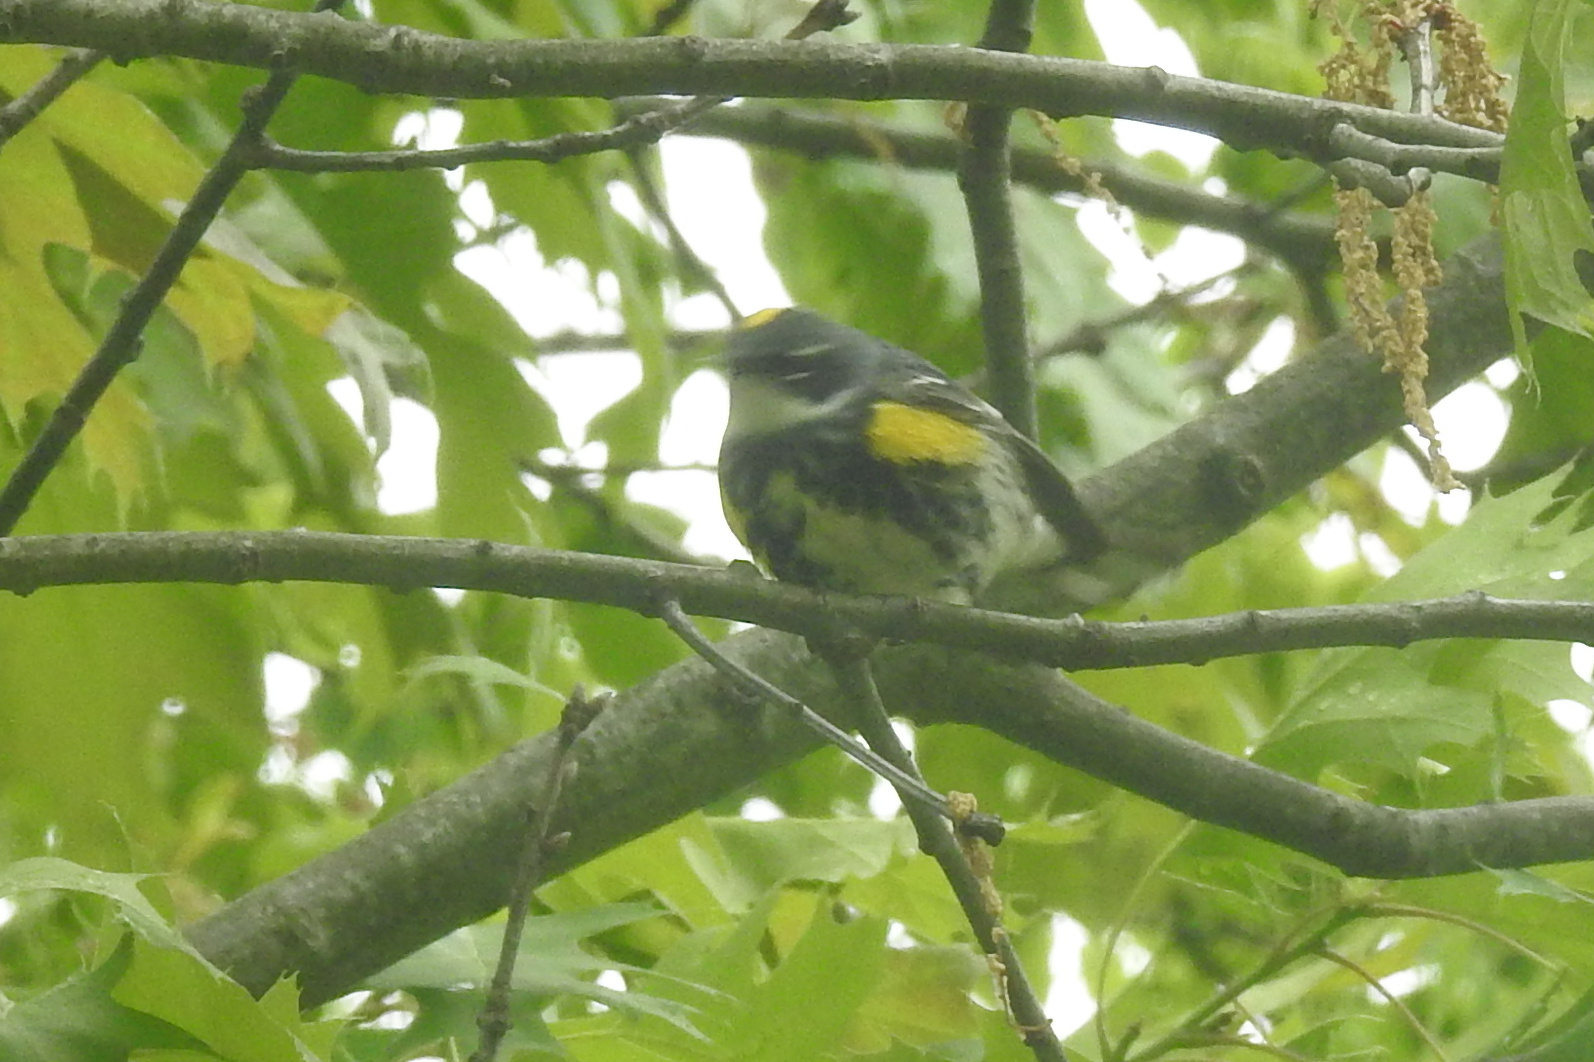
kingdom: Animalia
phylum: Chordata
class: Aves
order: Passeriformes
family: Parulidae
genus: Setophaga
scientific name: Setophaga coronata
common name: Myrtle warbler
